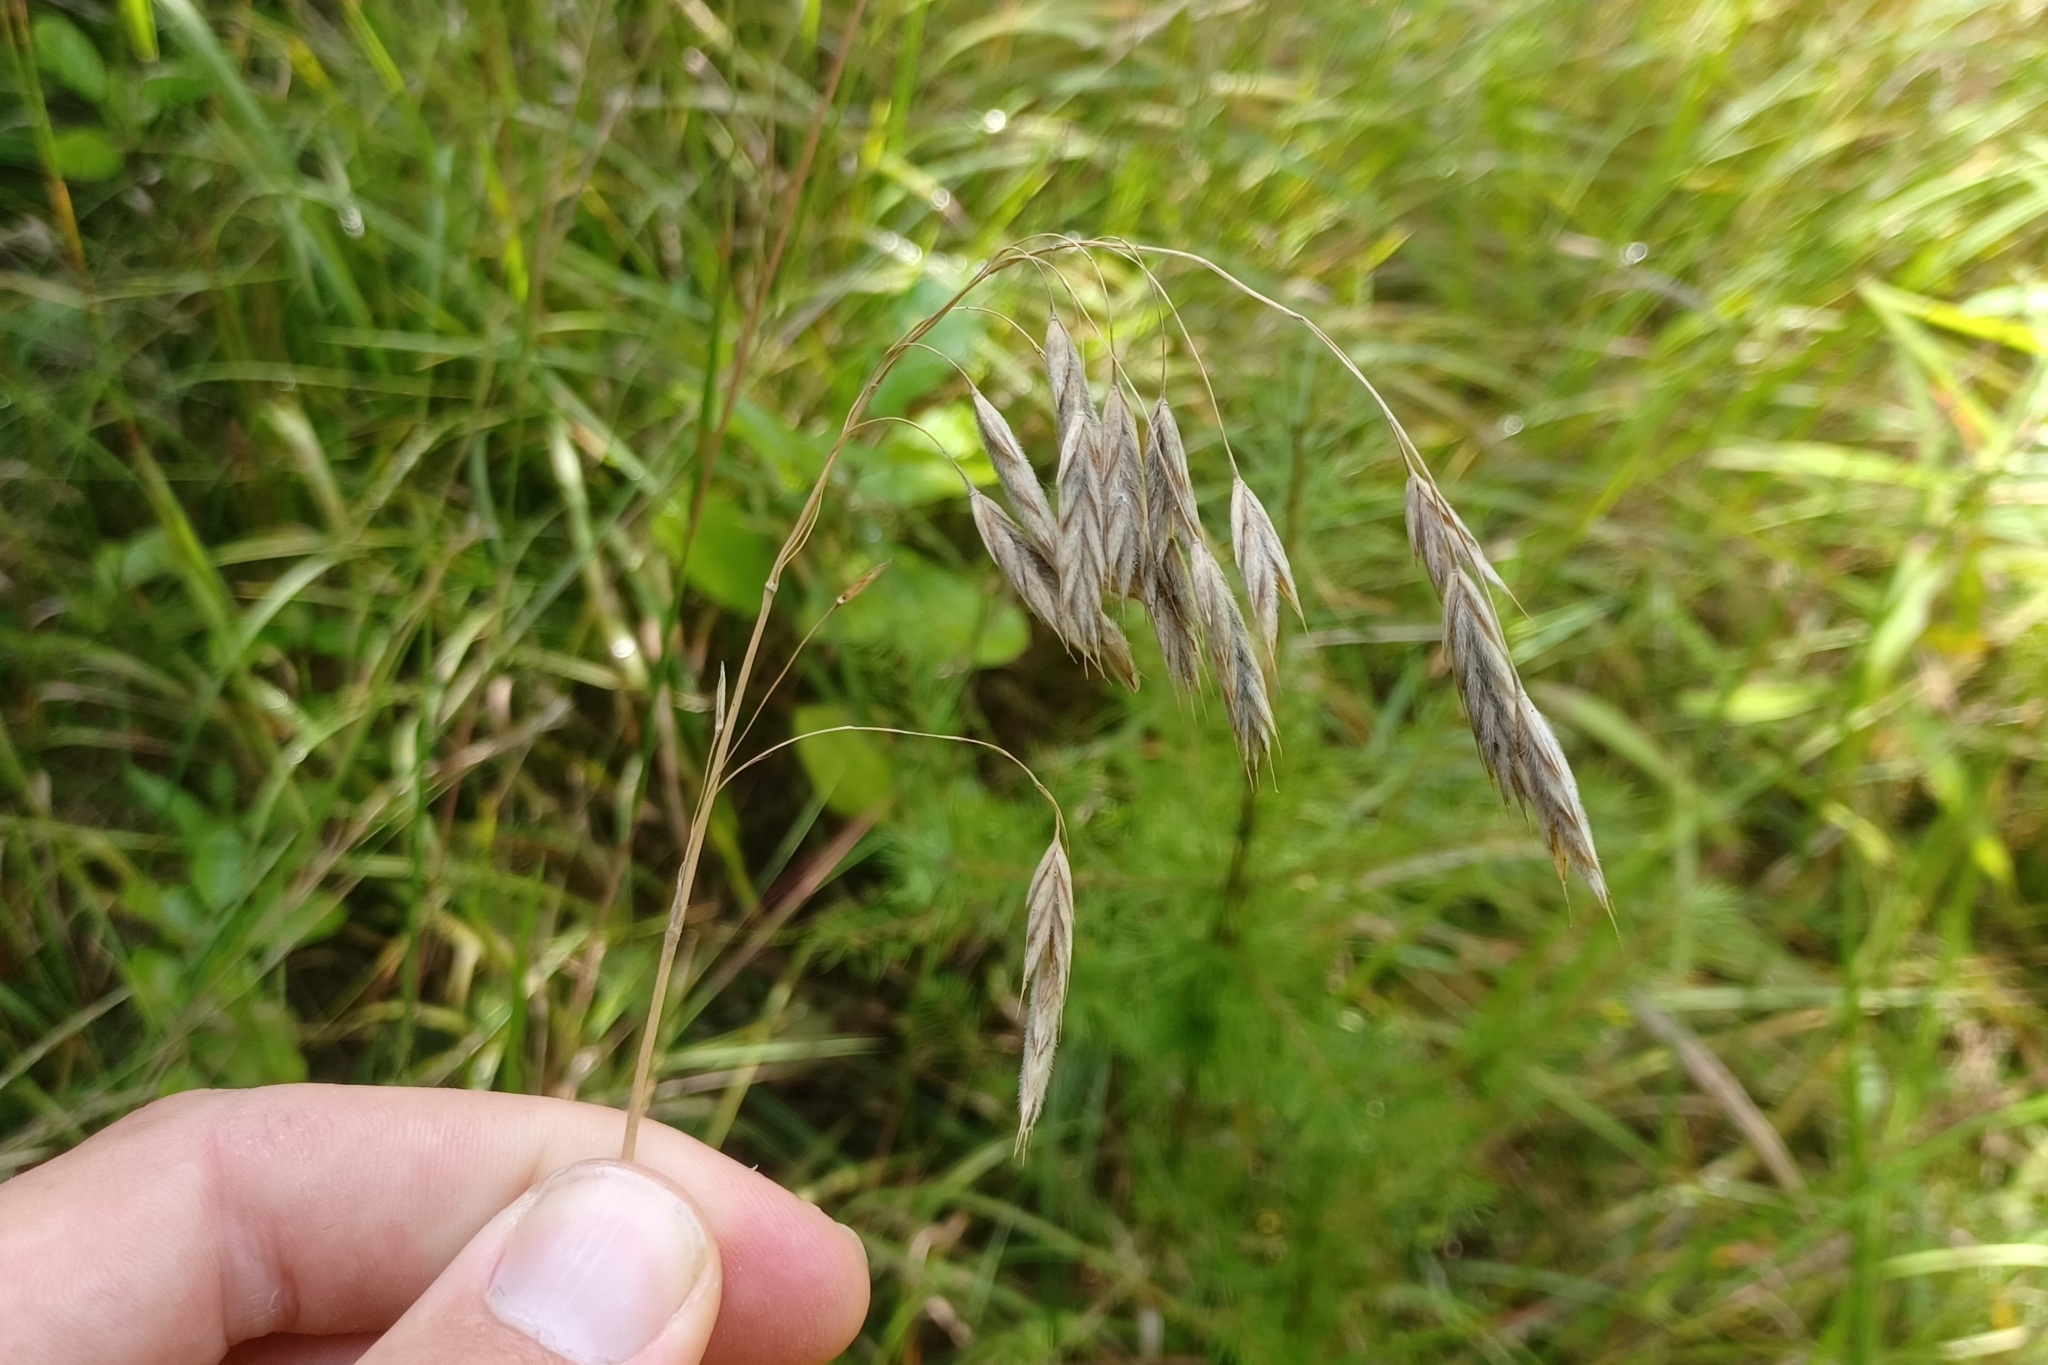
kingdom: Plantae
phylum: Tracheophyta
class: Liliopsida
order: Poales
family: Poaceae
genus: Bromus
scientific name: Bromus kalmii
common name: Kalm brome
